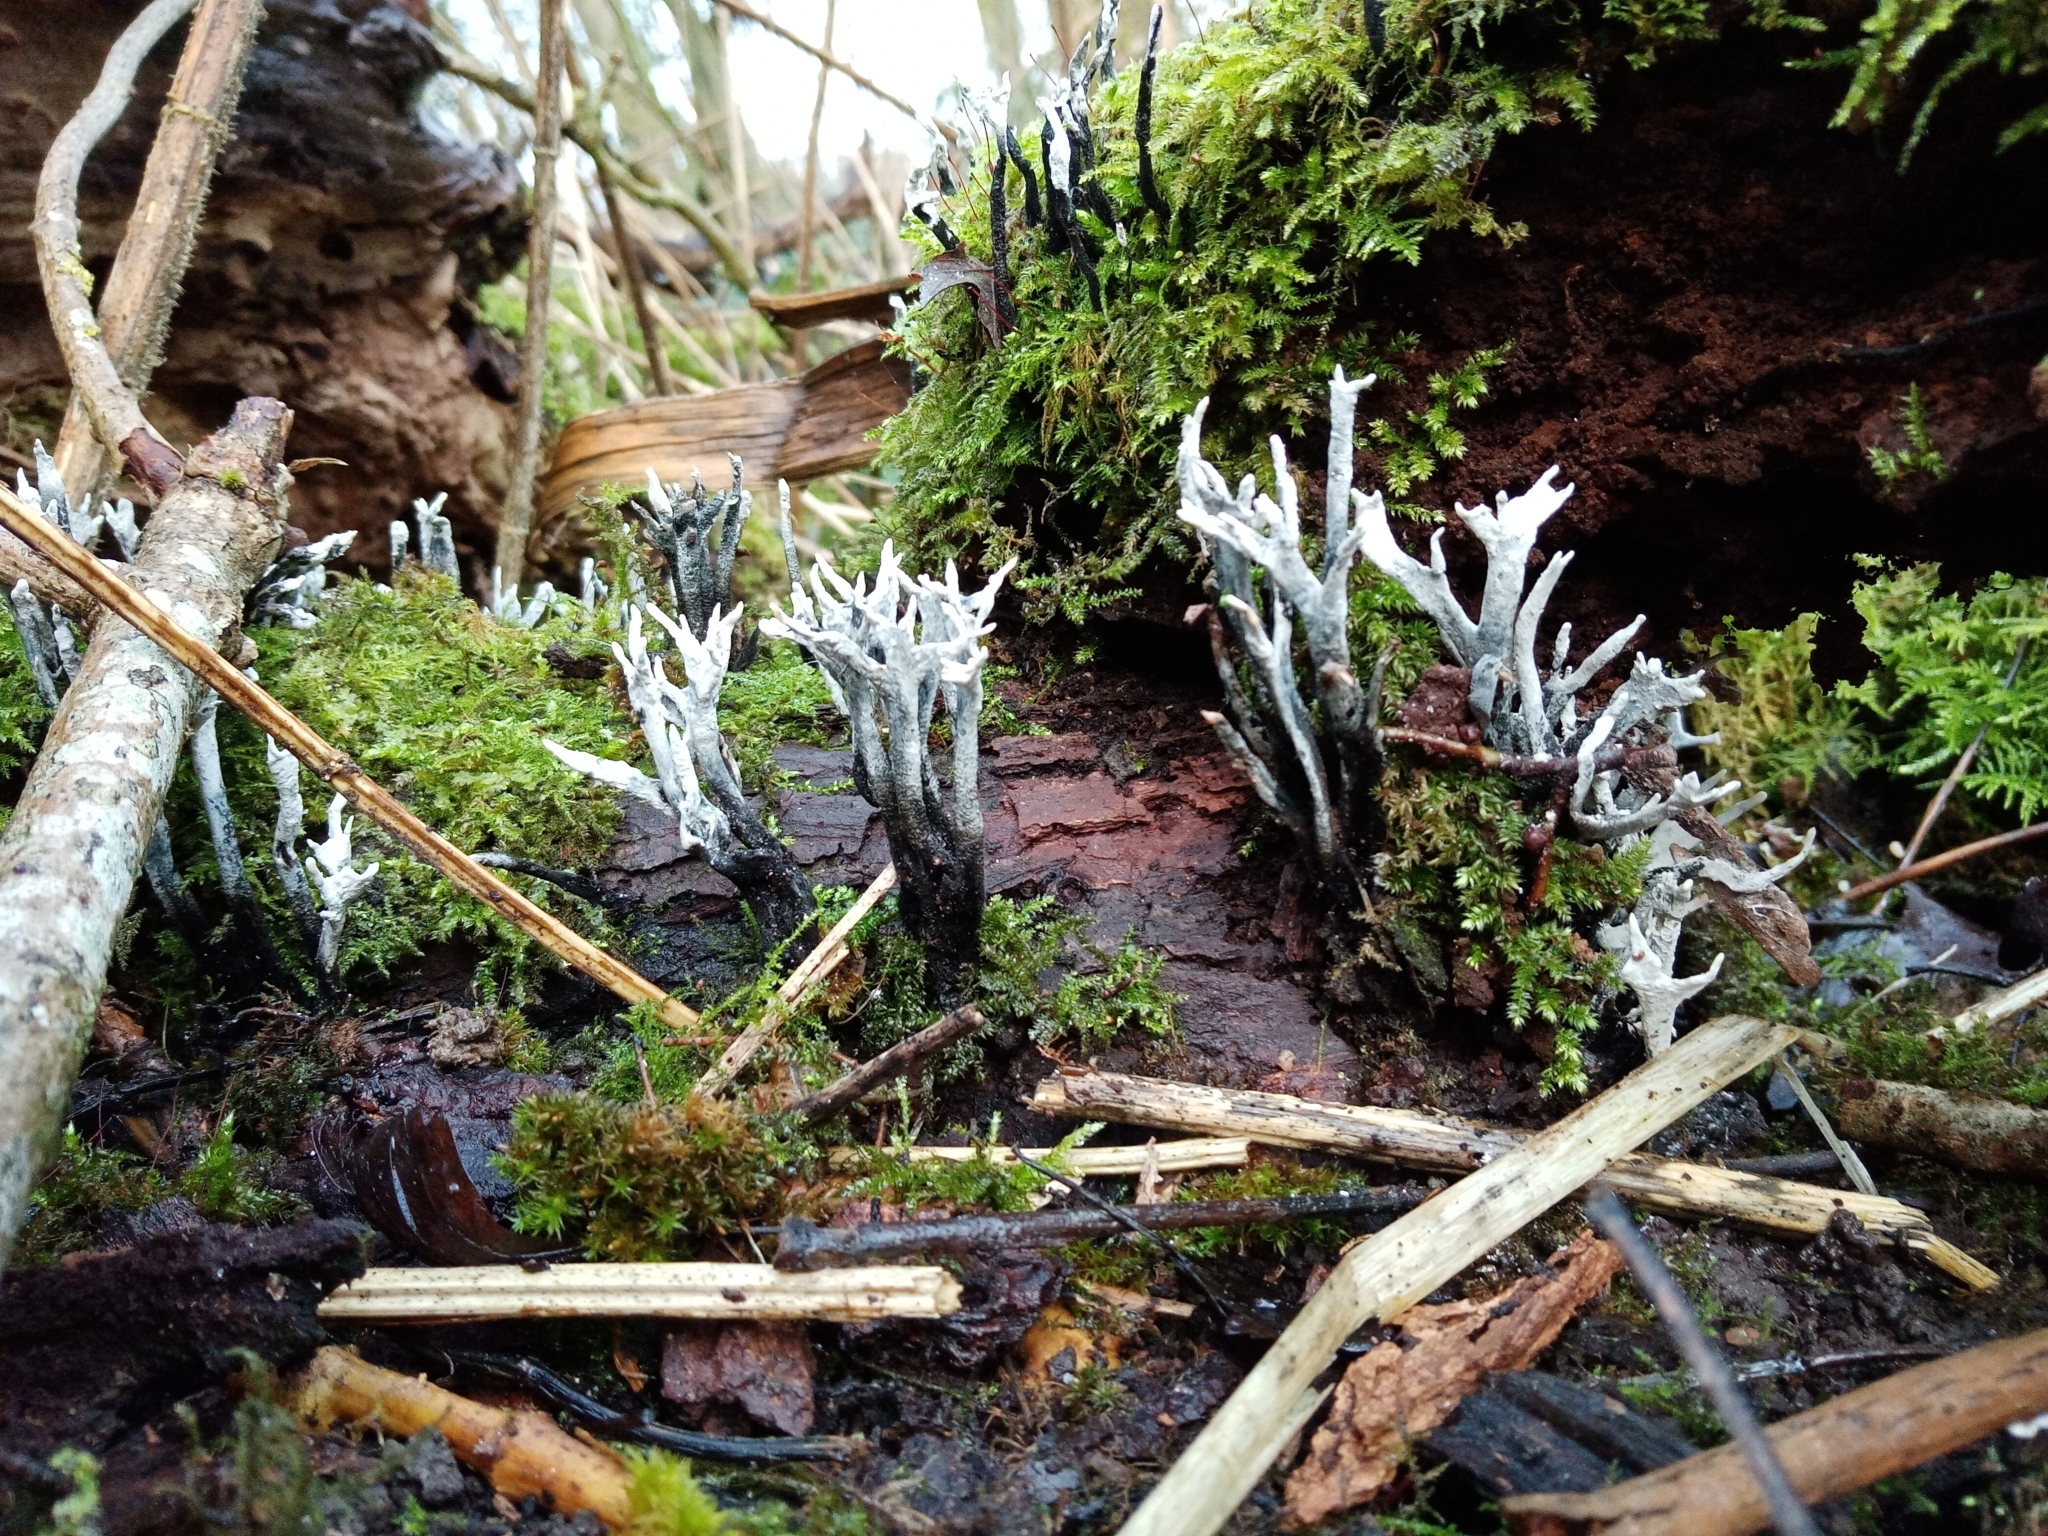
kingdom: Fungi
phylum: Ascomycota
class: Sordariomycetes
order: Xylariales
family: Xylariaceae
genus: Xylaria
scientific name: Xylaria hypoxylon
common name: Candle-snuff fungus
